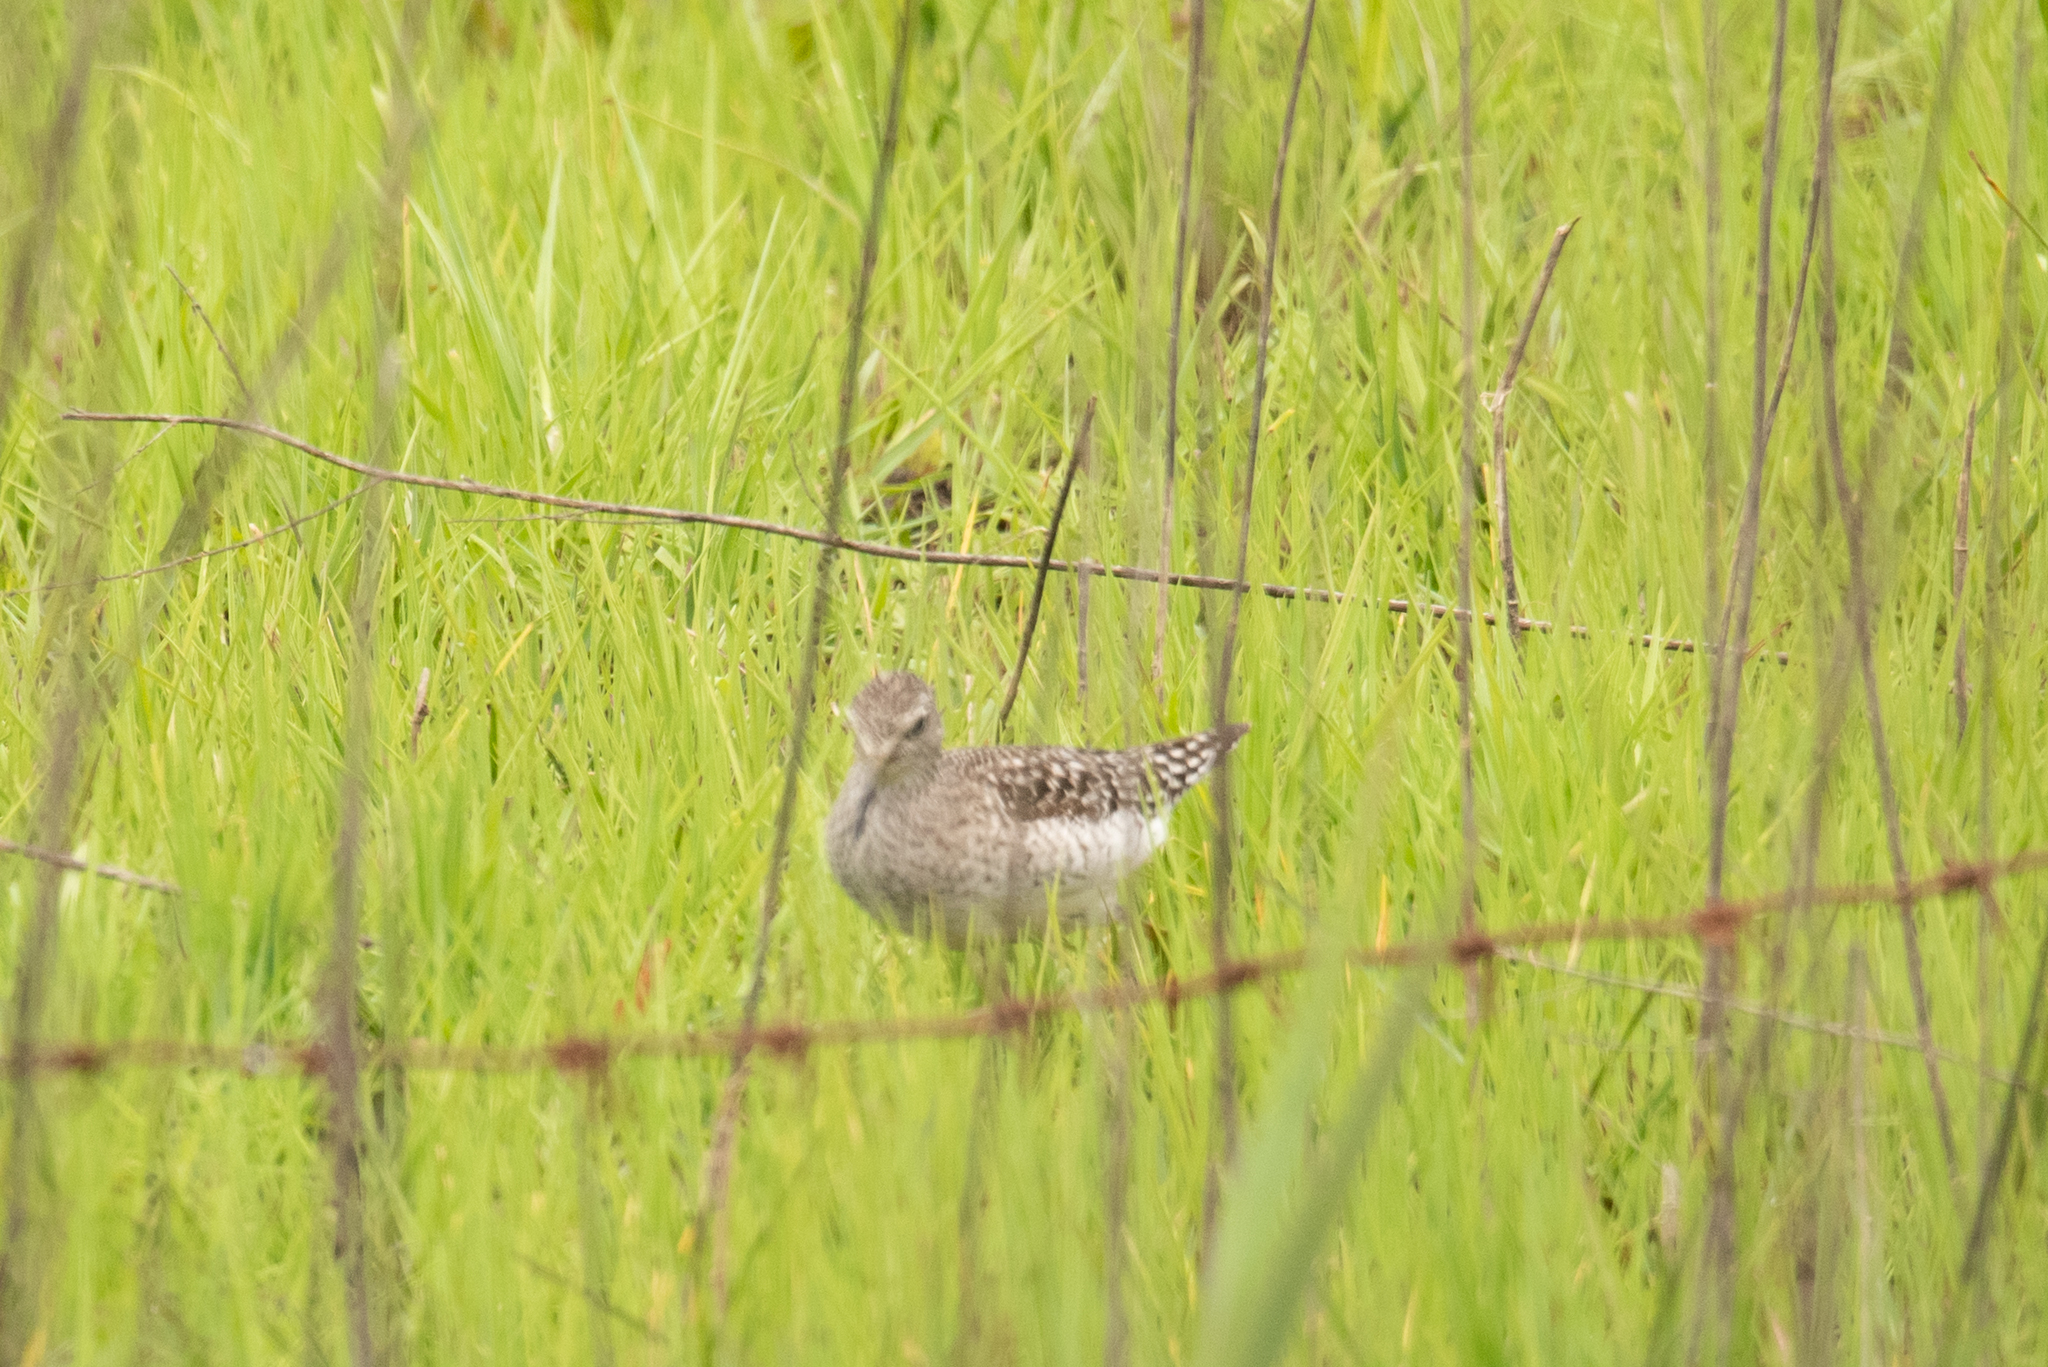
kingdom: Animalia
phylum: Chordata
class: Aves
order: Charadriiformes
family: Scolopacidae
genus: Tringa
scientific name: Tringa glareola
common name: Wood sandpiper
